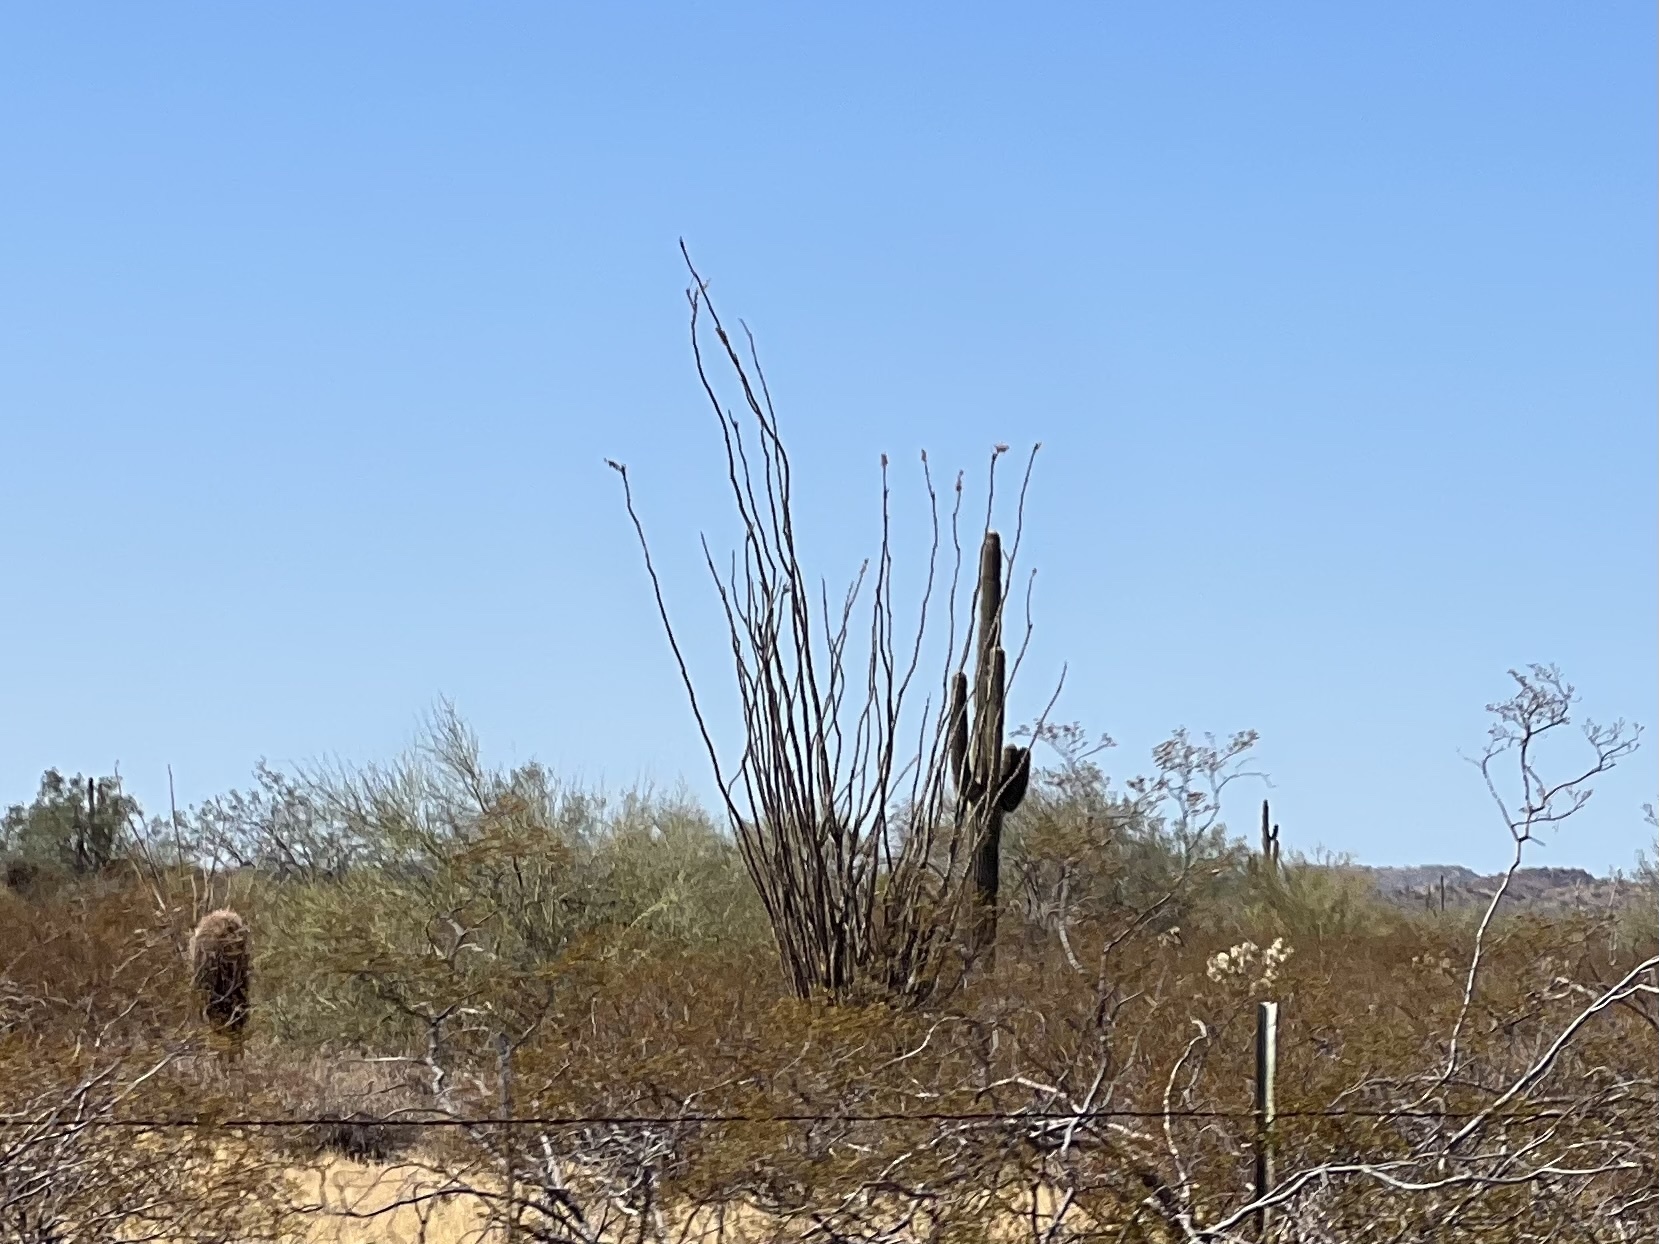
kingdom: Plantae
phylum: Tracheophyta
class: Magnoliopsida
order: Ericales
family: Fouquieriaceae
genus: Fouquieria
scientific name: Fouquieria splendens
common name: Vine-cactus
